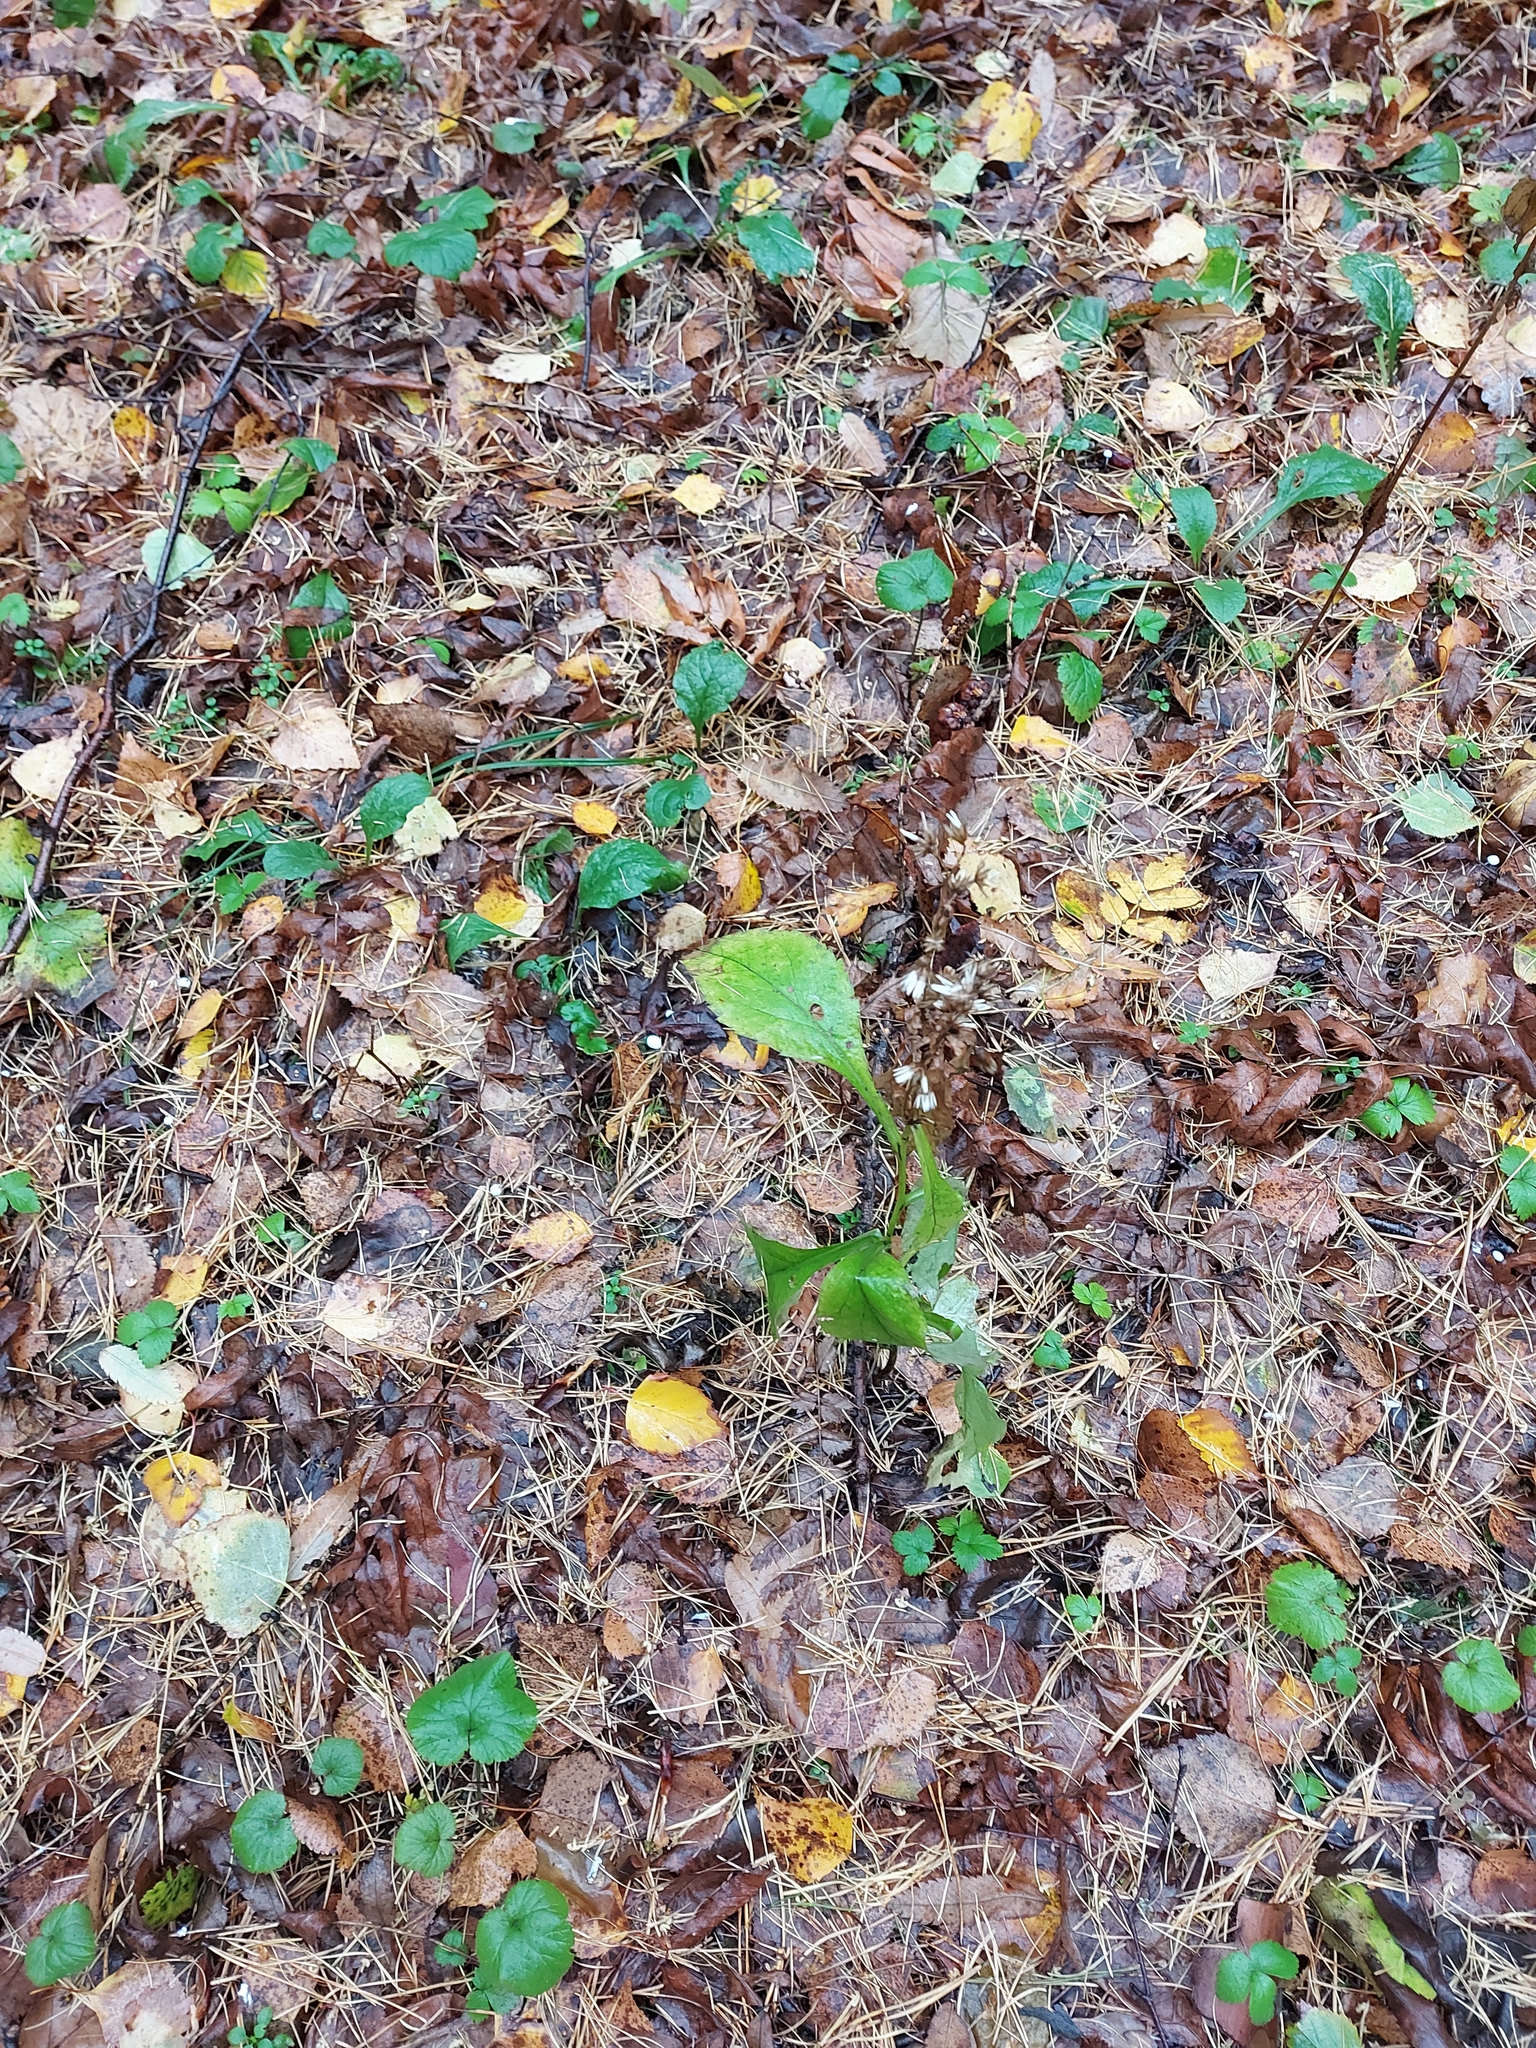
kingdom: Plantae
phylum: Tracheophyta
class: Magnoliopsida
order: Asterales
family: Asteraceae
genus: Solidago
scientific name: Solidago virgaurea
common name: Goldenrod
